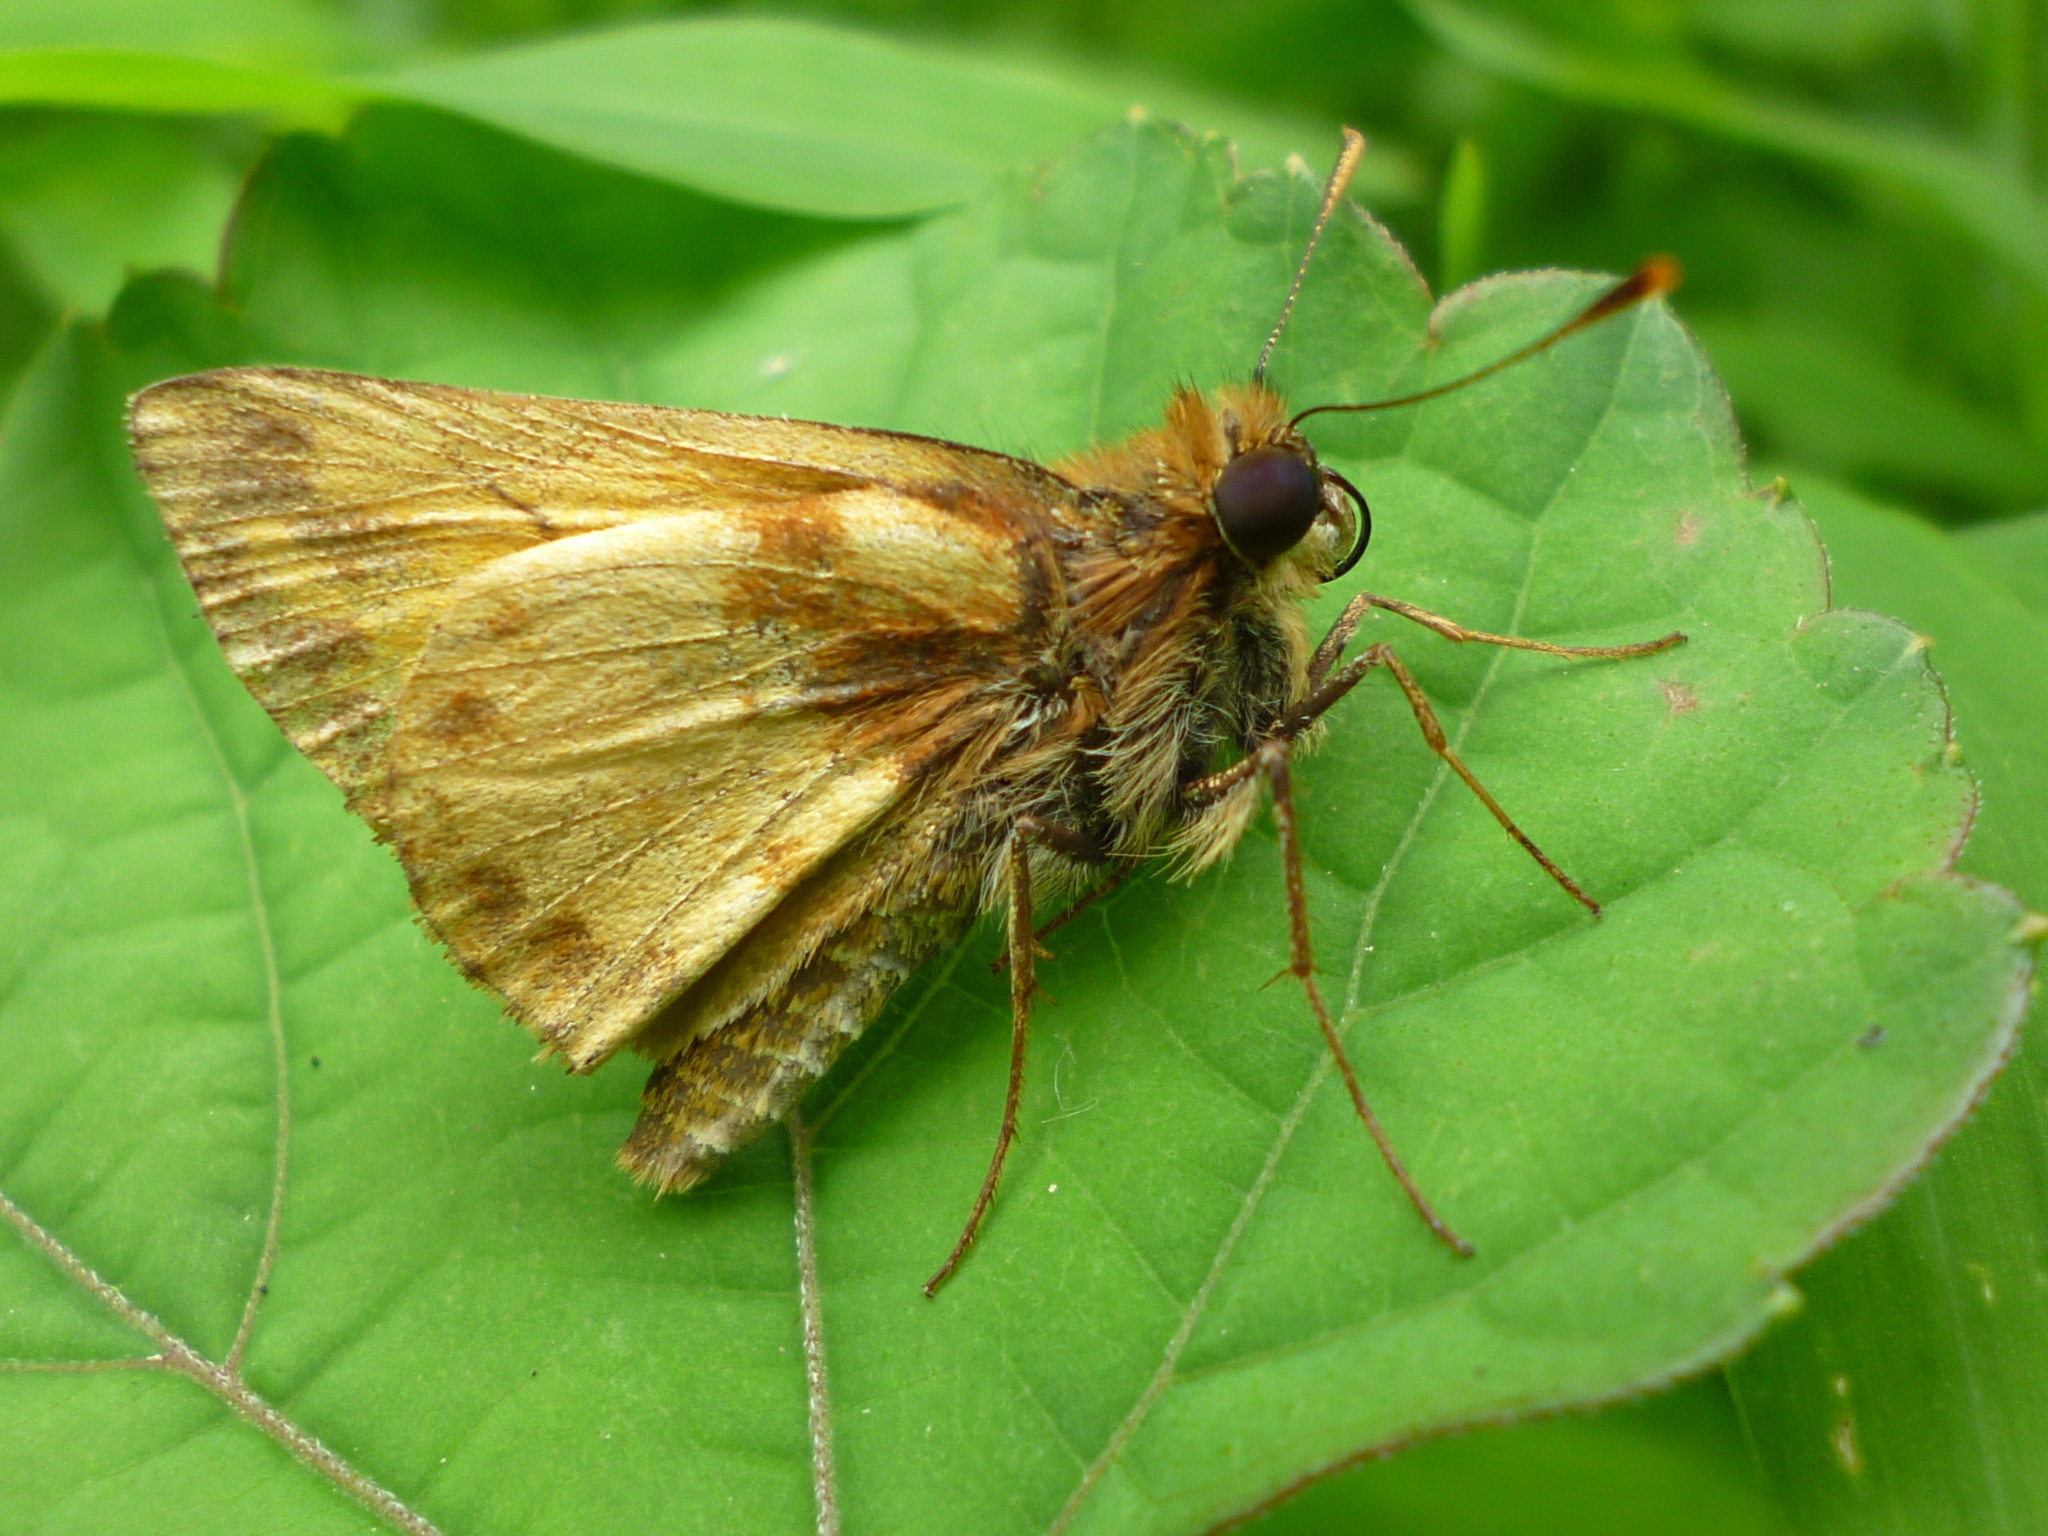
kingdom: Animalia
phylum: Arthropoda
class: Insecta
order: Lepidoptera
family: Hesperiidae
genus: Lon
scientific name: Lon zabulon
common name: Zabulon skipper
